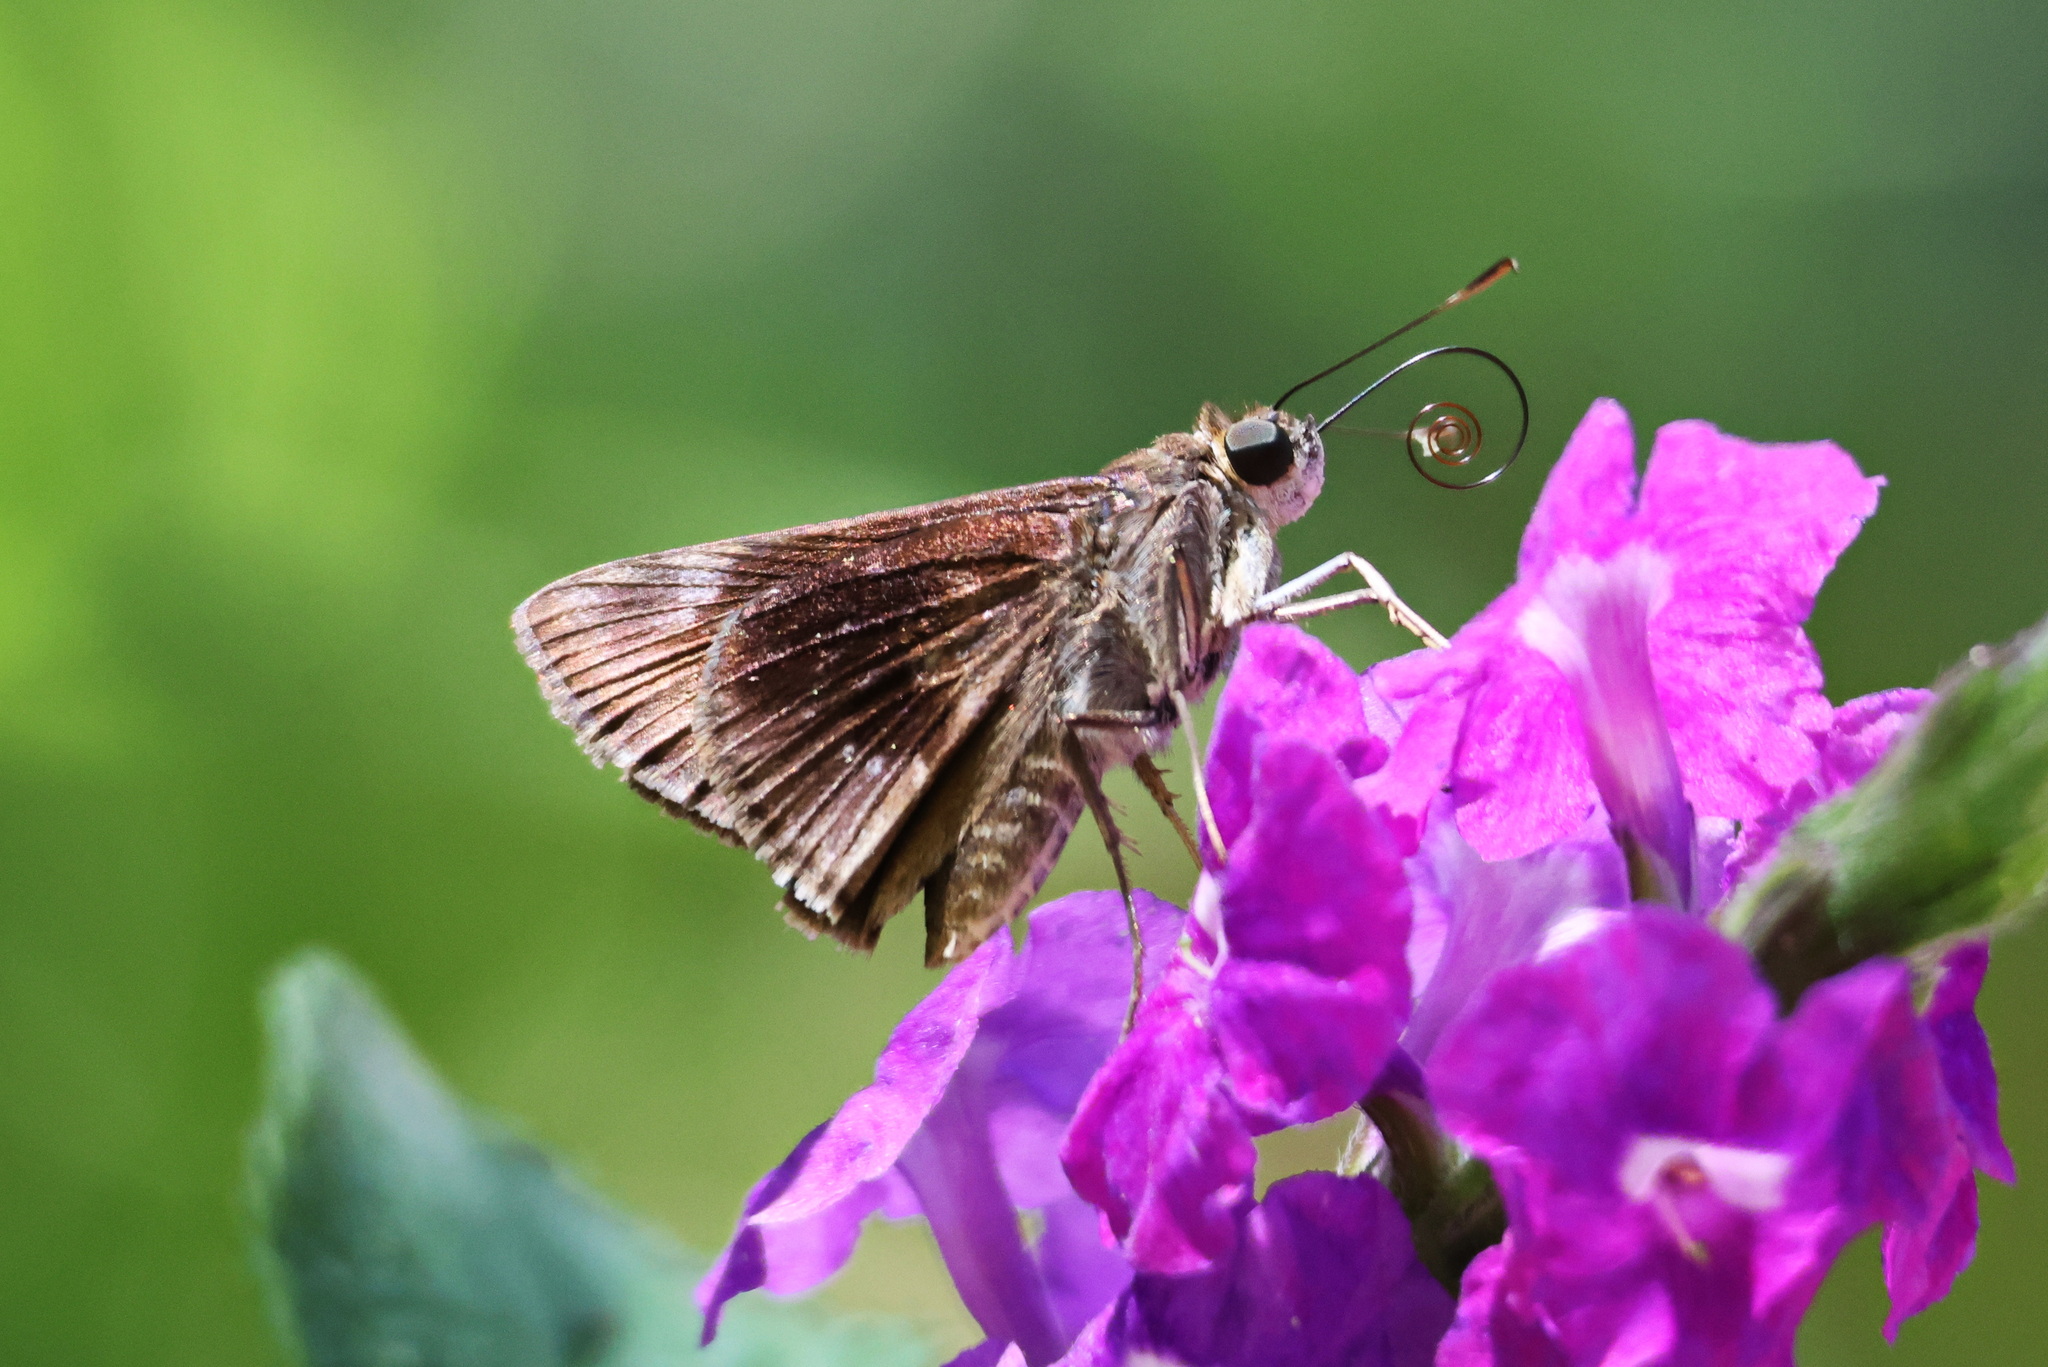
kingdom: Animalia
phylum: Arthropoda
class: Insecta
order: Lepidoptera
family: Hesperiidae
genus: Cynea
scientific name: Cynea irma
